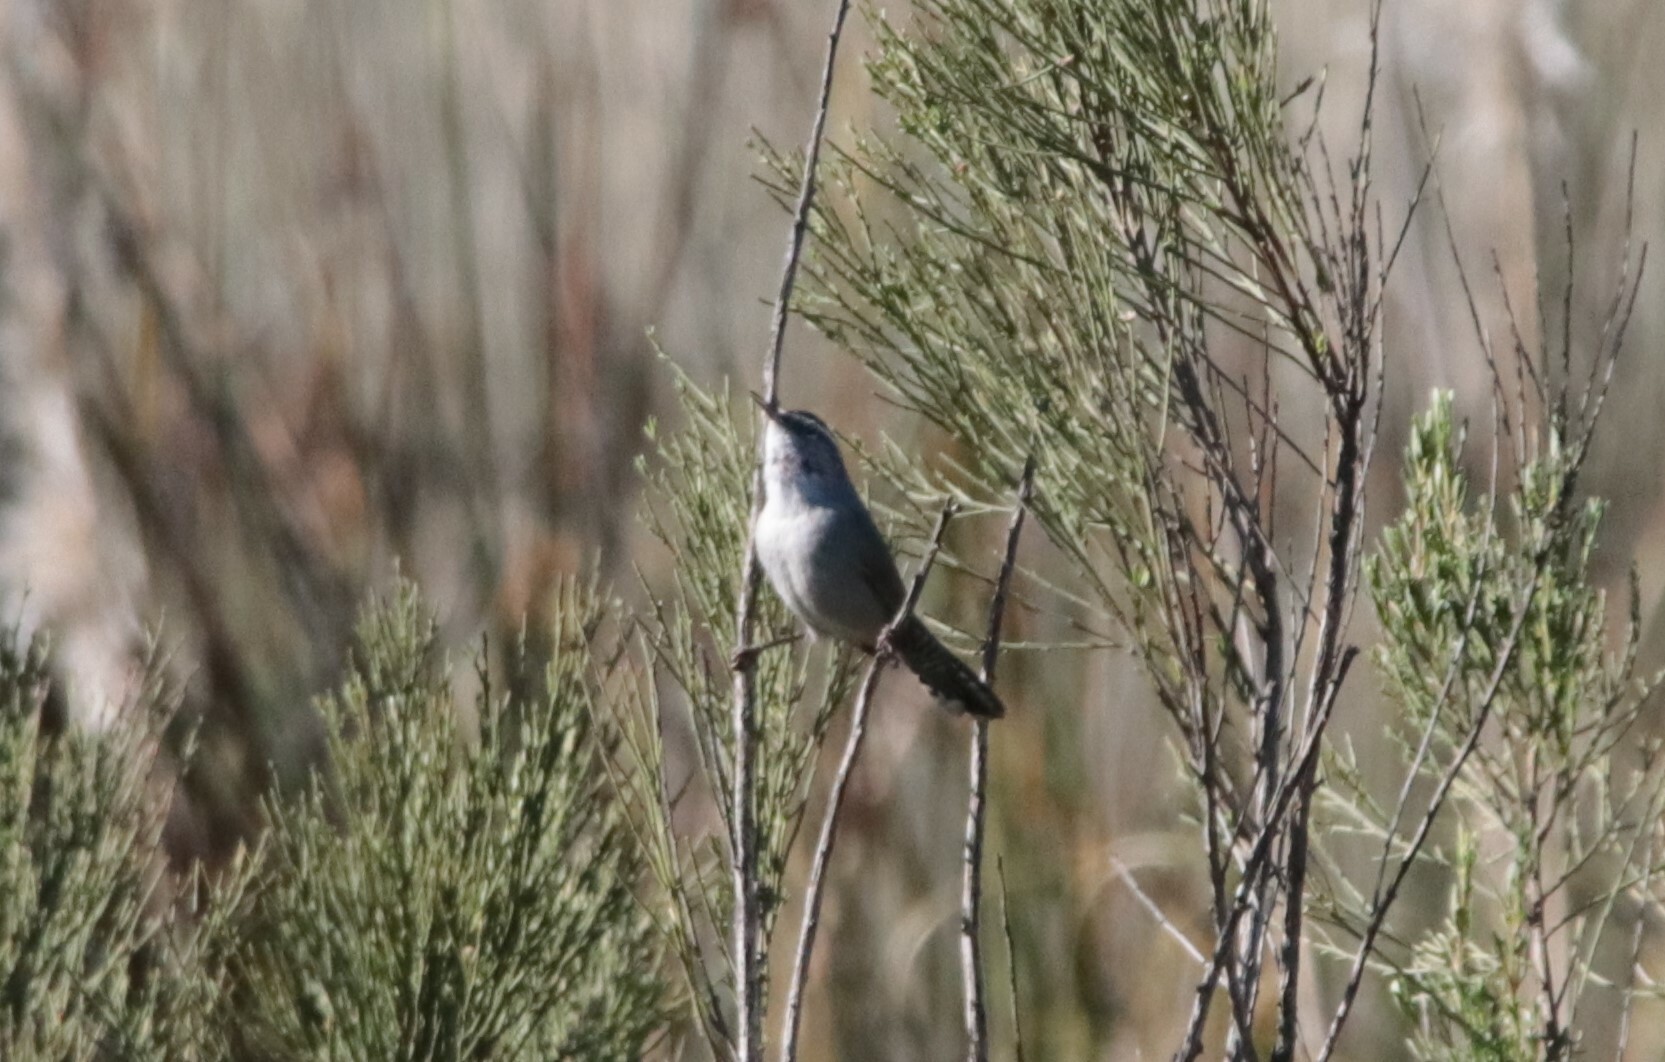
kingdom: Animalia
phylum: Chordata
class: Aves
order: Passeriformes
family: Troglodytidae
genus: Thryomanes
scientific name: Thryomanes bewickii
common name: Bewick's wren
